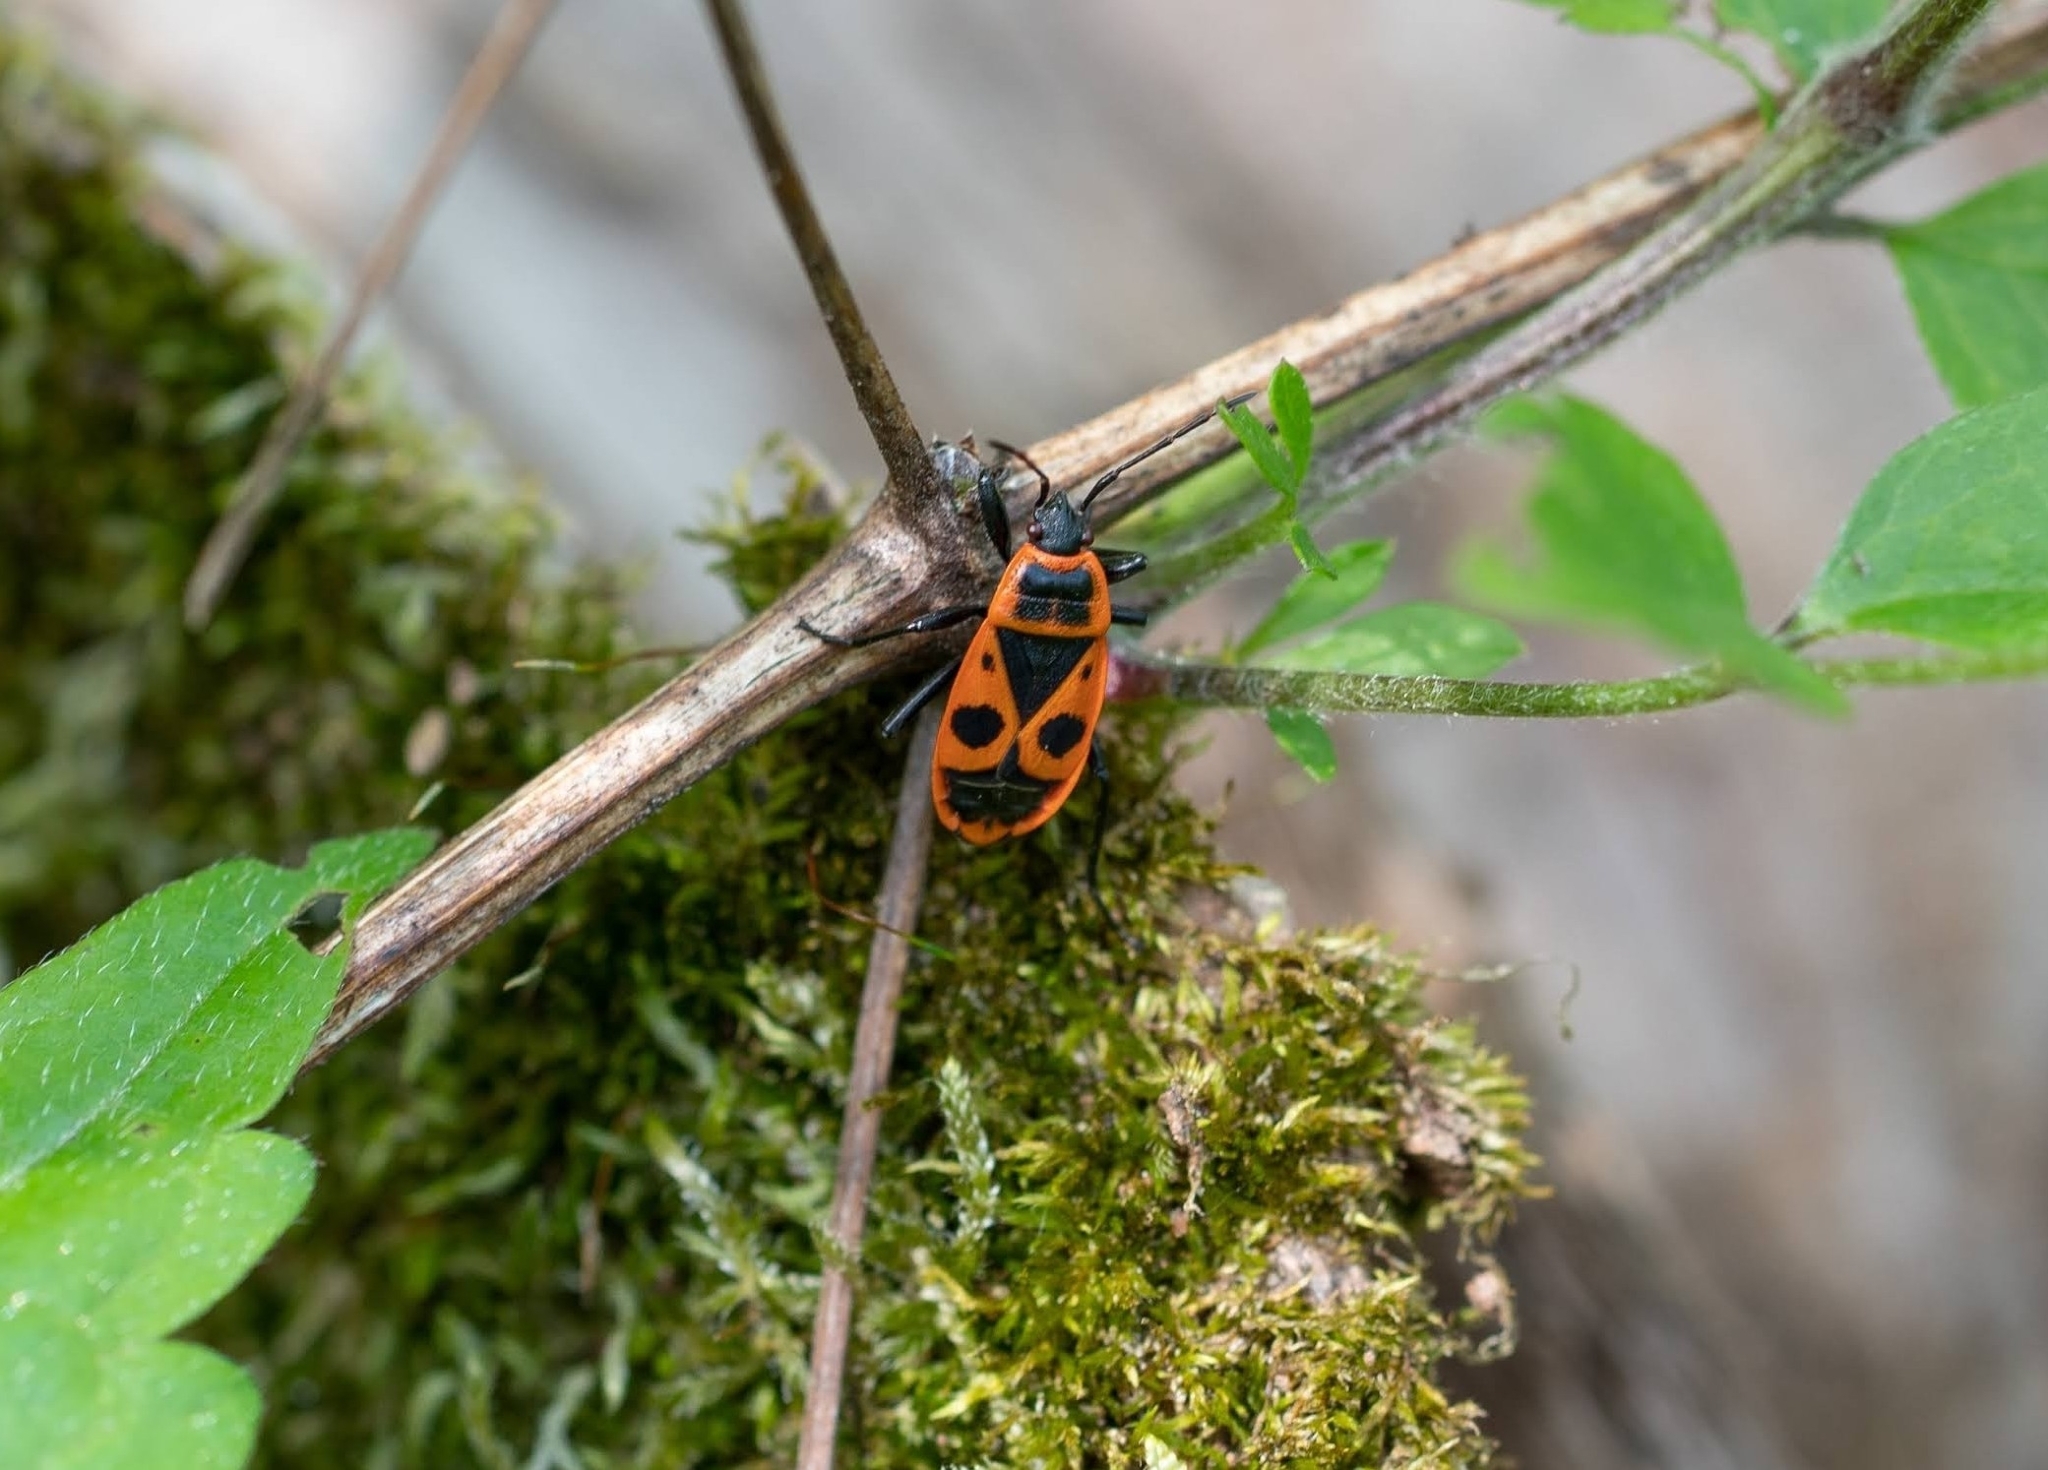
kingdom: Animalia
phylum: Arthropoda
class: Insecta
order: Hemiptera
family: Pyrrhocoridae
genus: Pyrrhocoris
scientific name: Pyrrhocoris apterus
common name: Firebug
